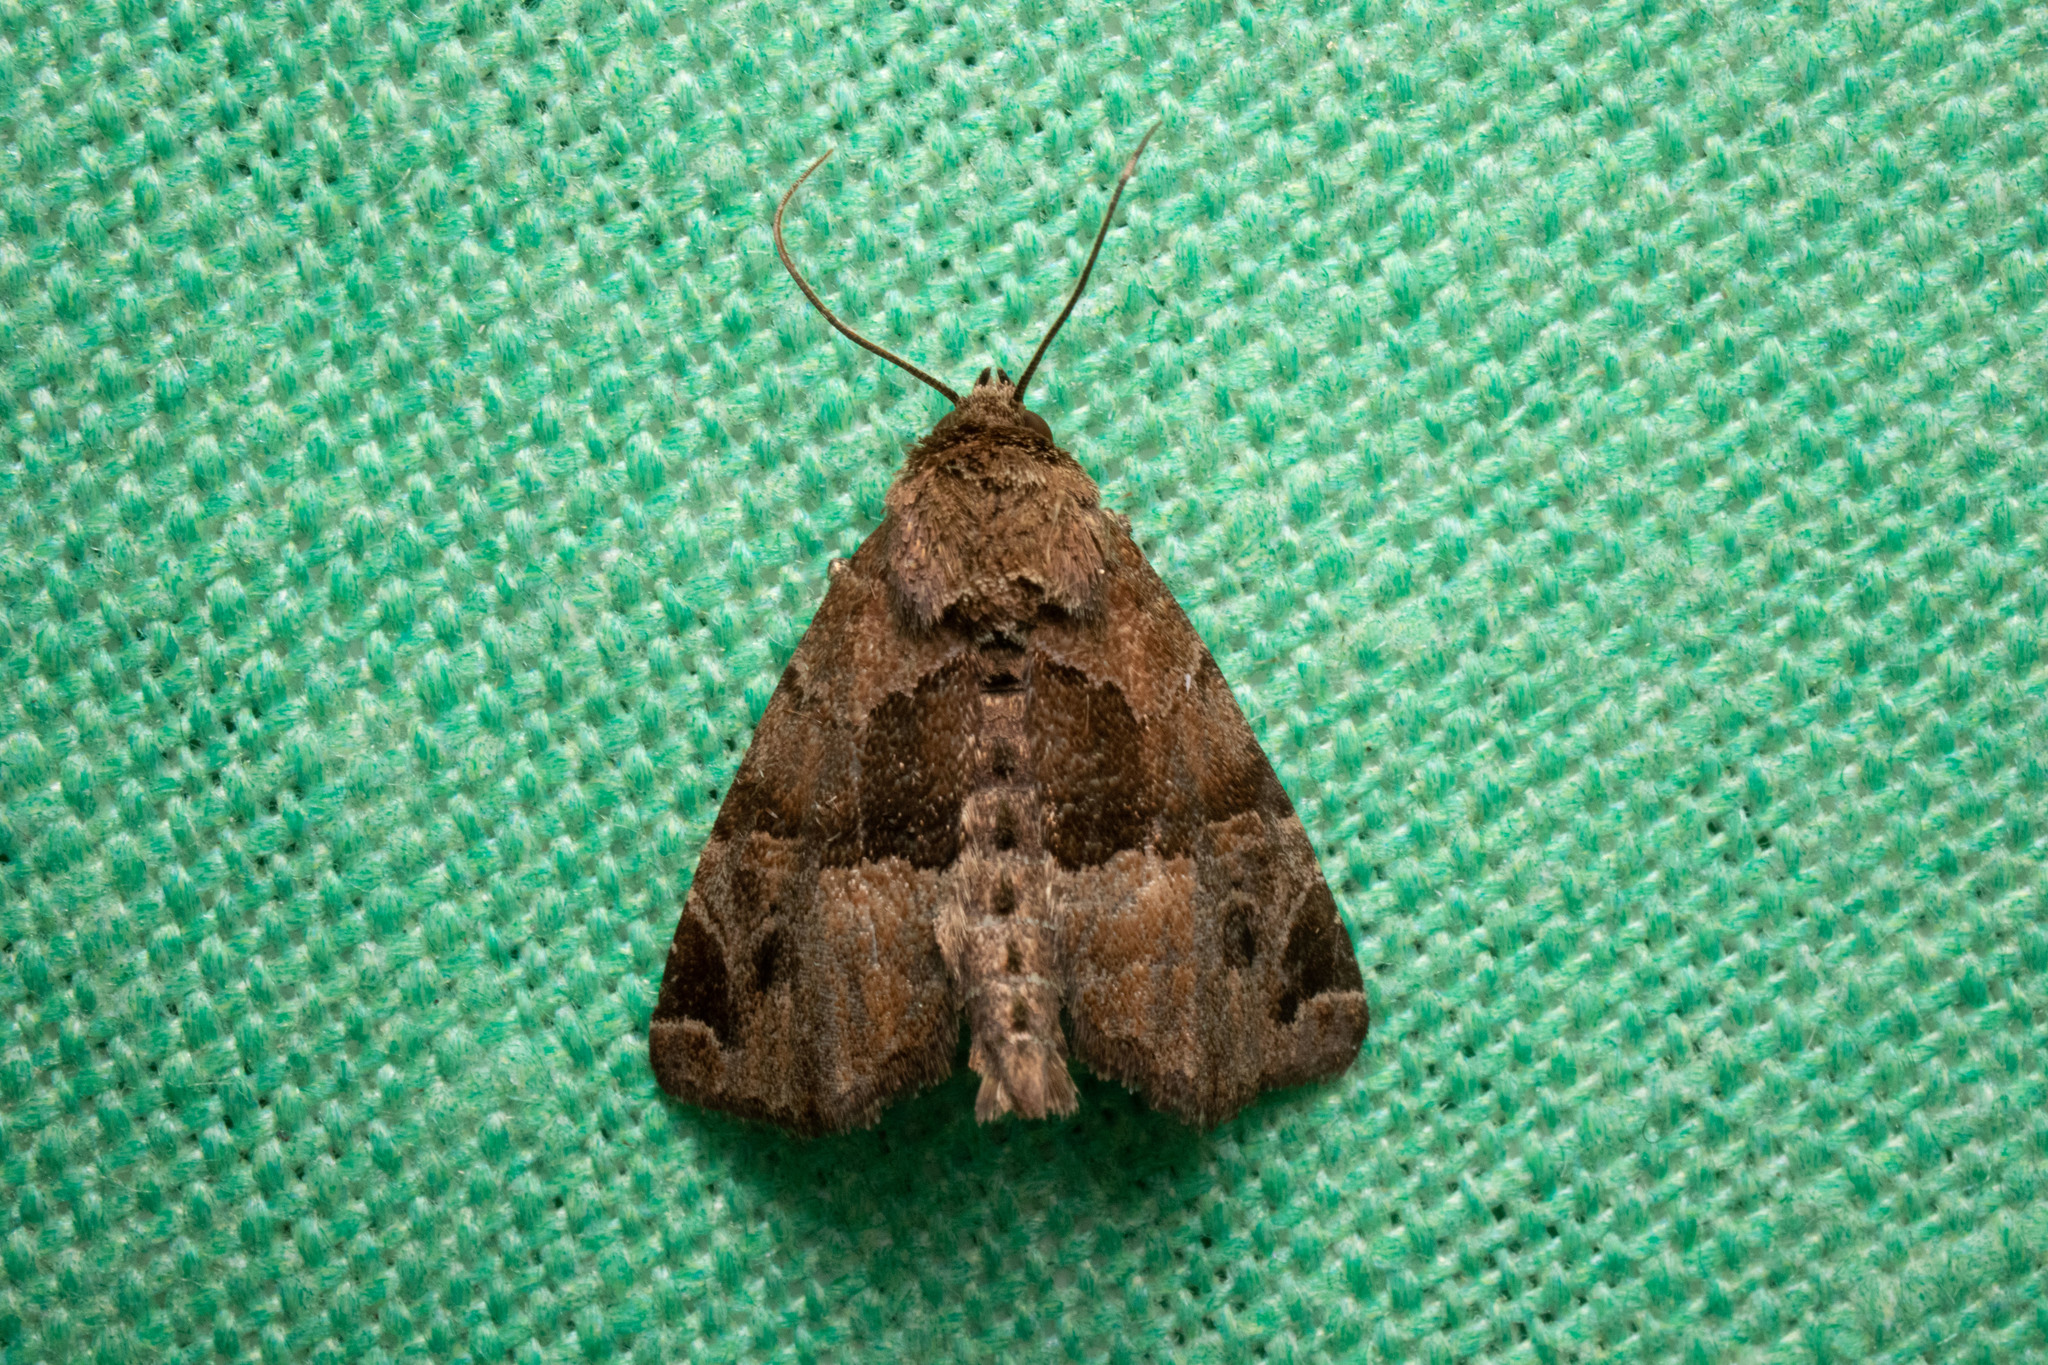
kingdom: Animalia
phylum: Arthropoda
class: Insecta
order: Lepidoptera
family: Noctuidae
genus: Niphonyx
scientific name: Niphonyx segregata
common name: Hops angleshade moth
